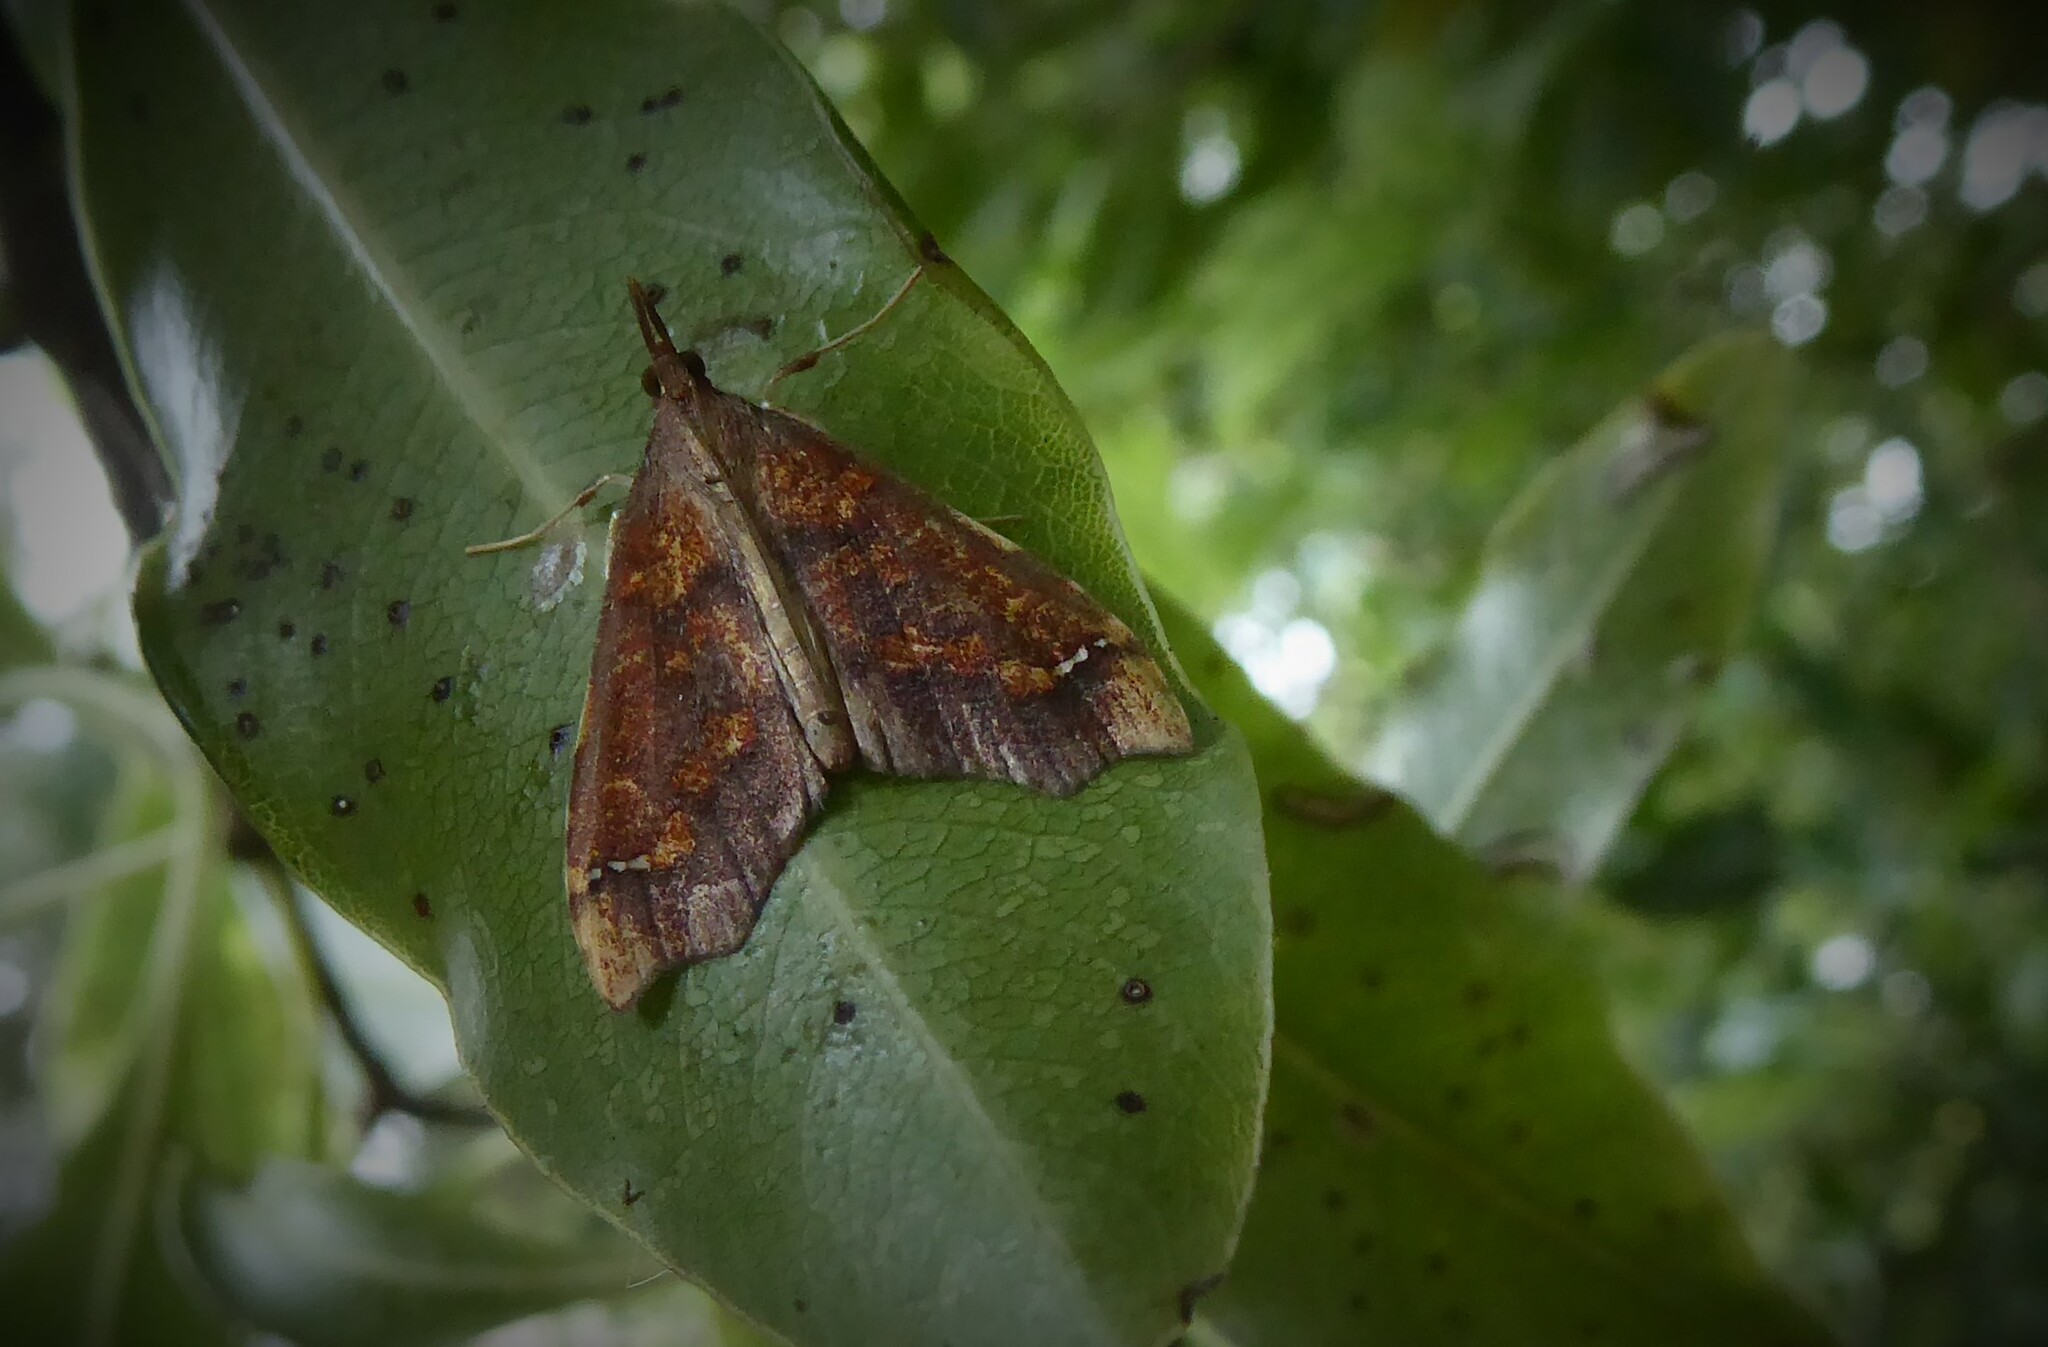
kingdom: Animalia
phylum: Arthropoda
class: Insecta
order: Lepidoptera
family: Crambidae
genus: Deana
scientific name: Deana hybreasalis
